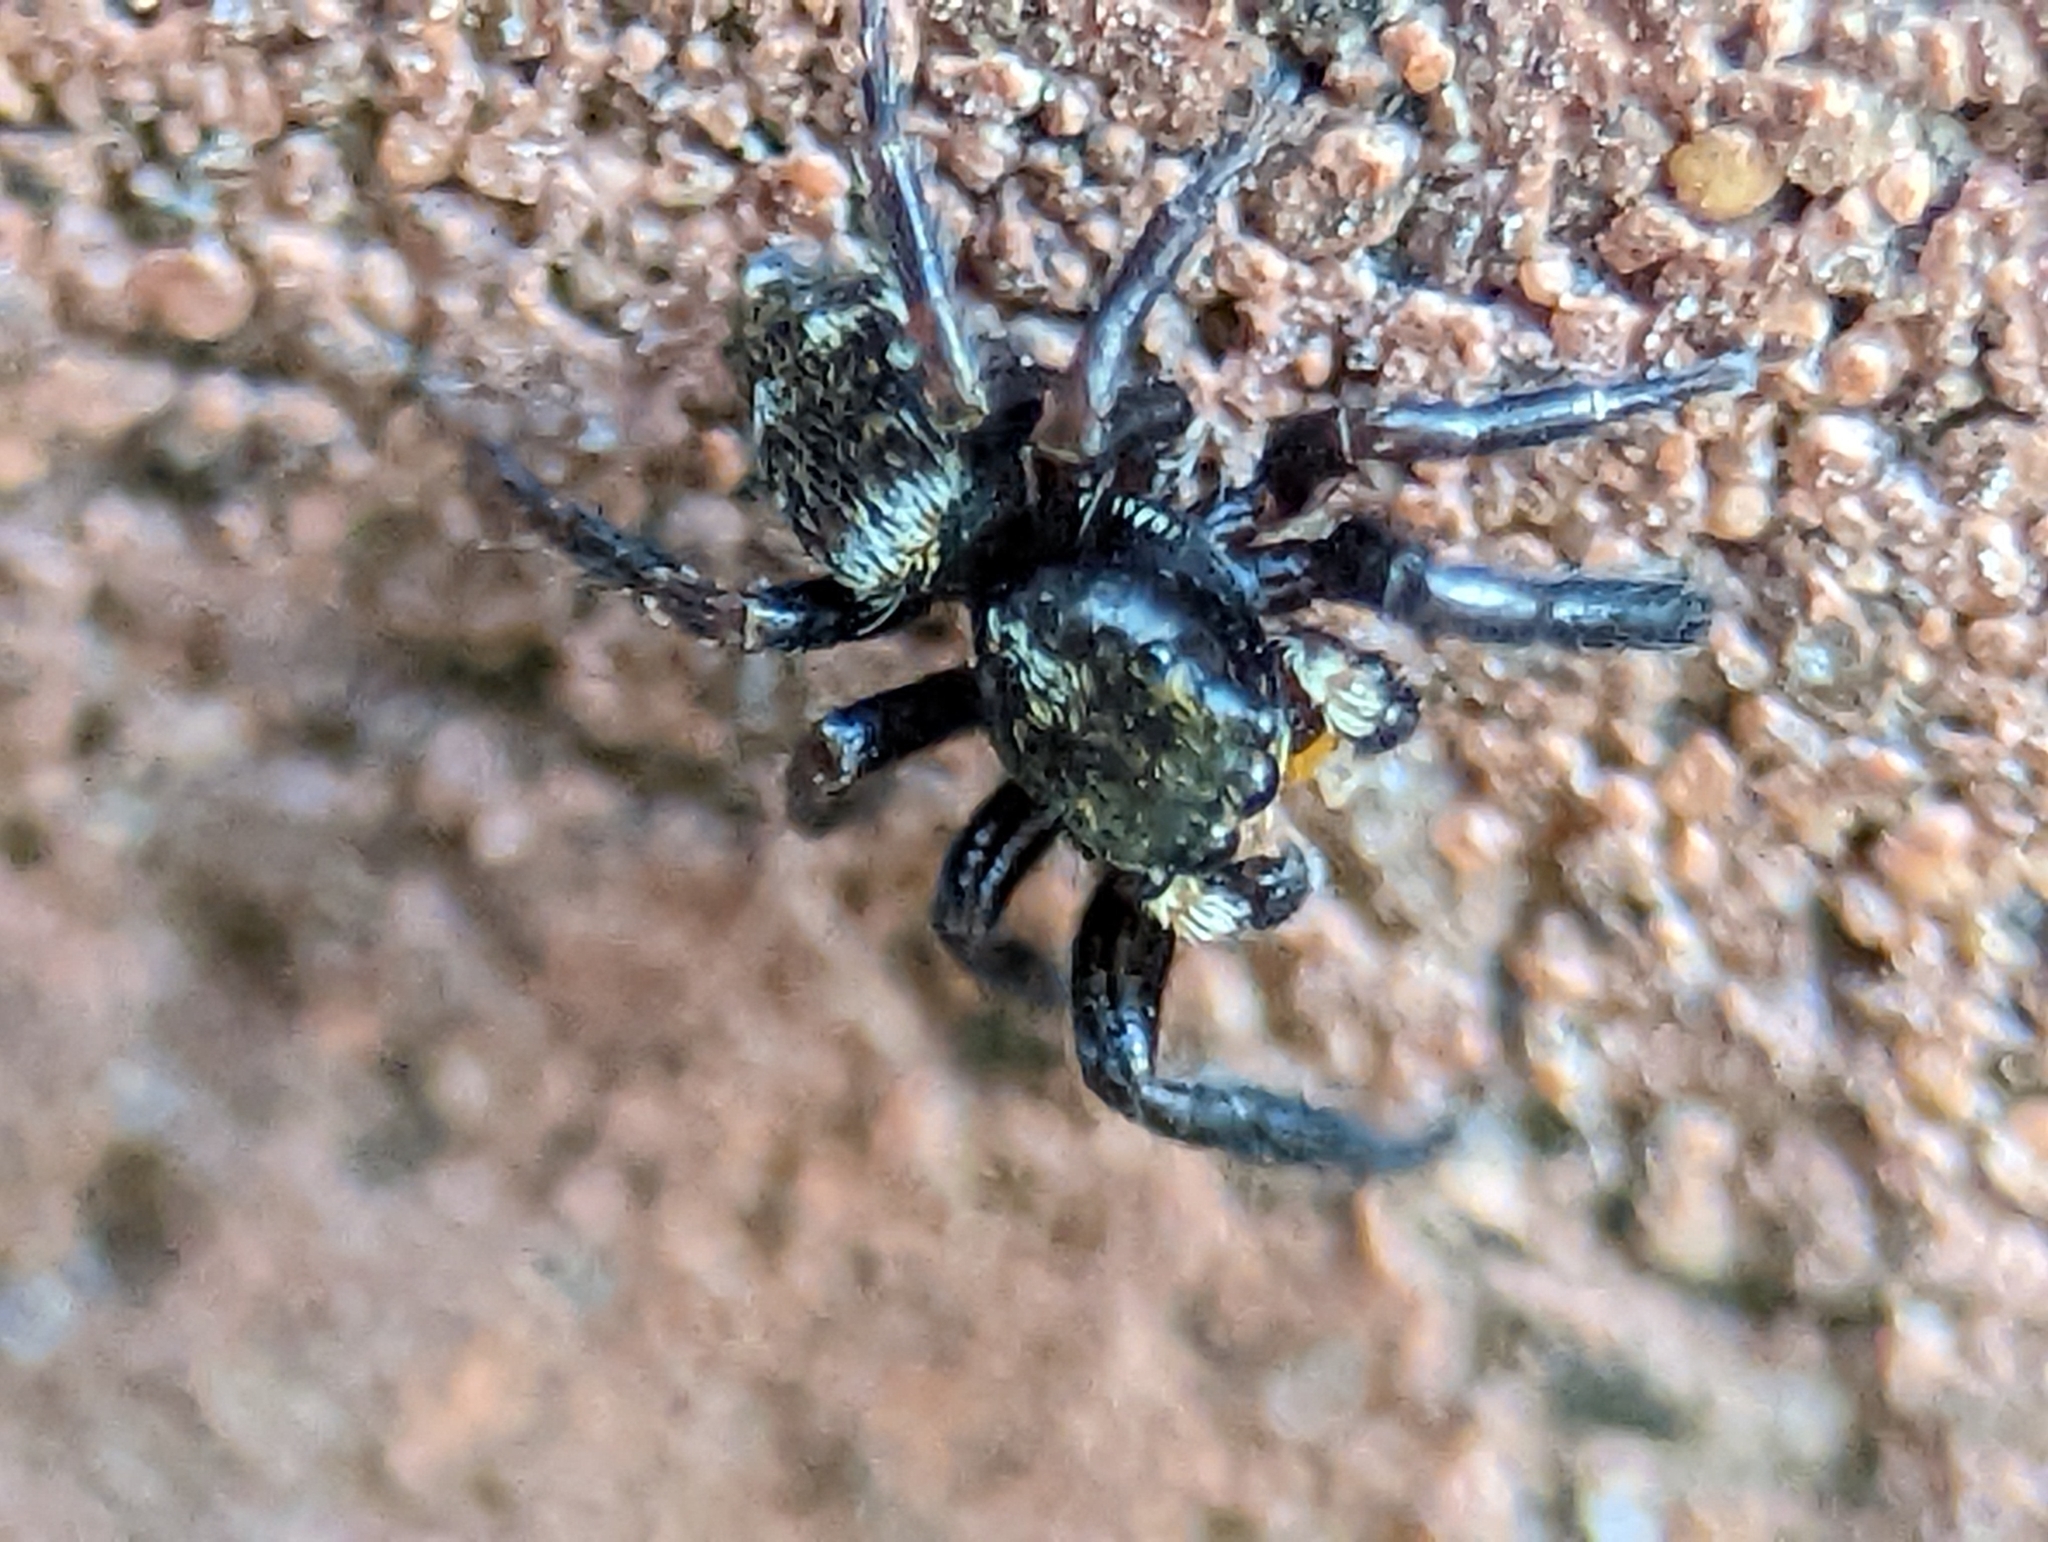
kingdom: Animalia
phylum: Arthropoda
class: Arachnida
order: Araneae
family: Salticidae
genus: Pseudeuophrys
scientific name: Pseudeuophrys erratica
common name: Jumping spider
